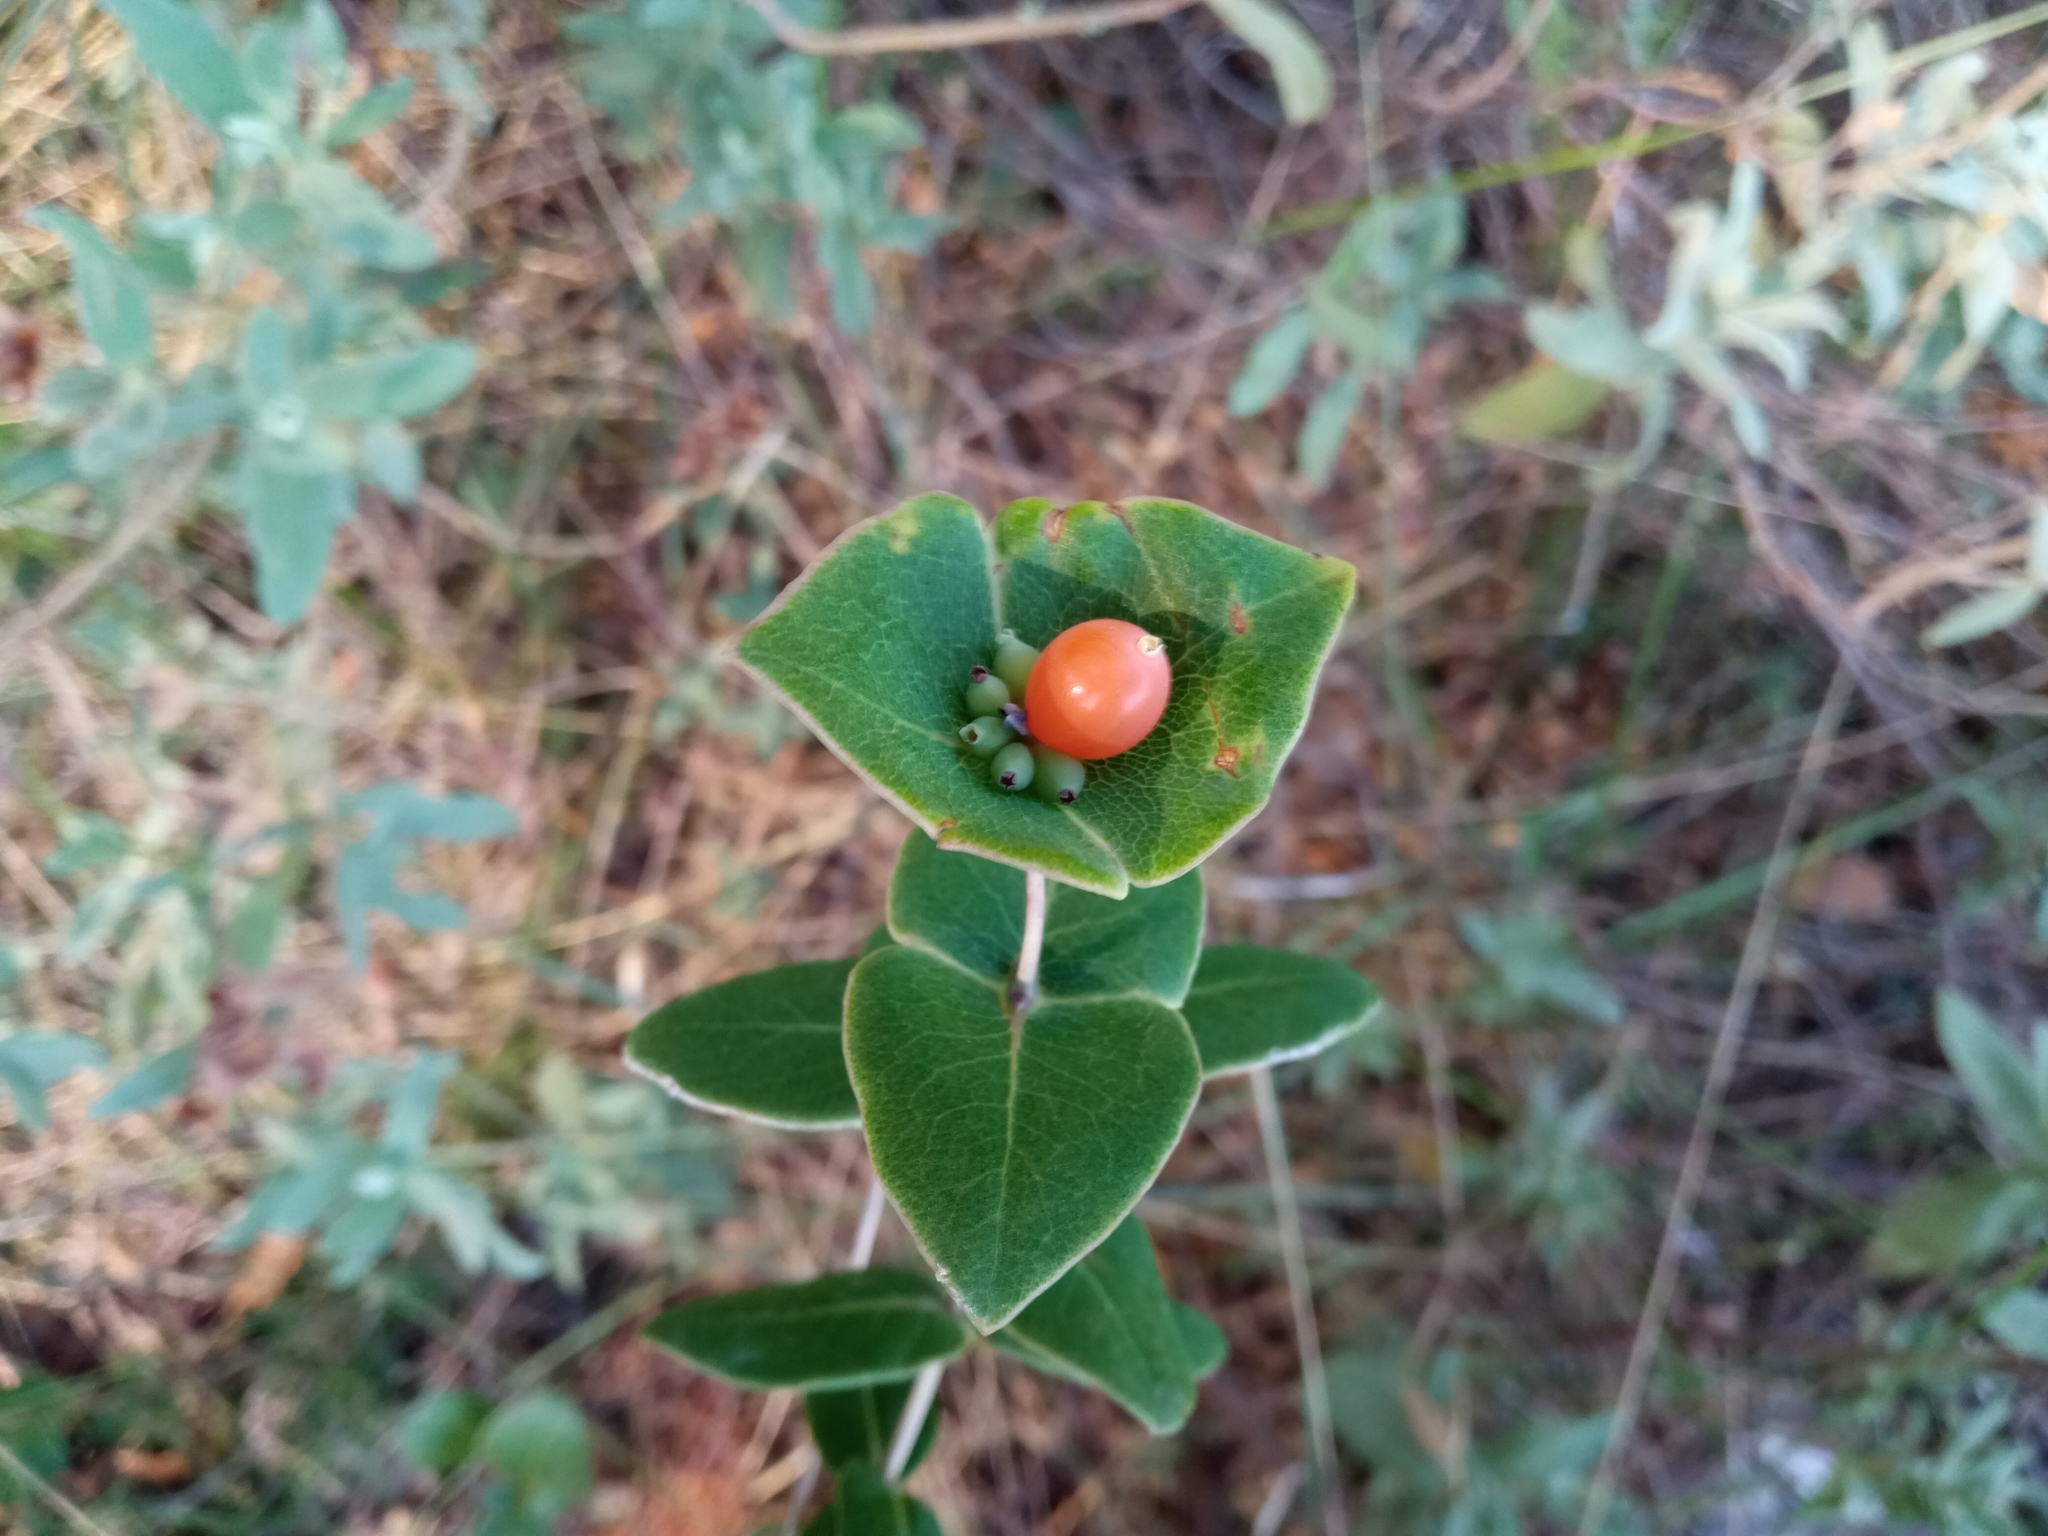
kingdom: Plantae
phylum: Tracheophyta
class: Magnoliopsida
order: Dipsacales
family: Caprifoliaceae
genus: Lonicera
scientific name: Lonicera implexa
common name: Minorca honeysuckle
